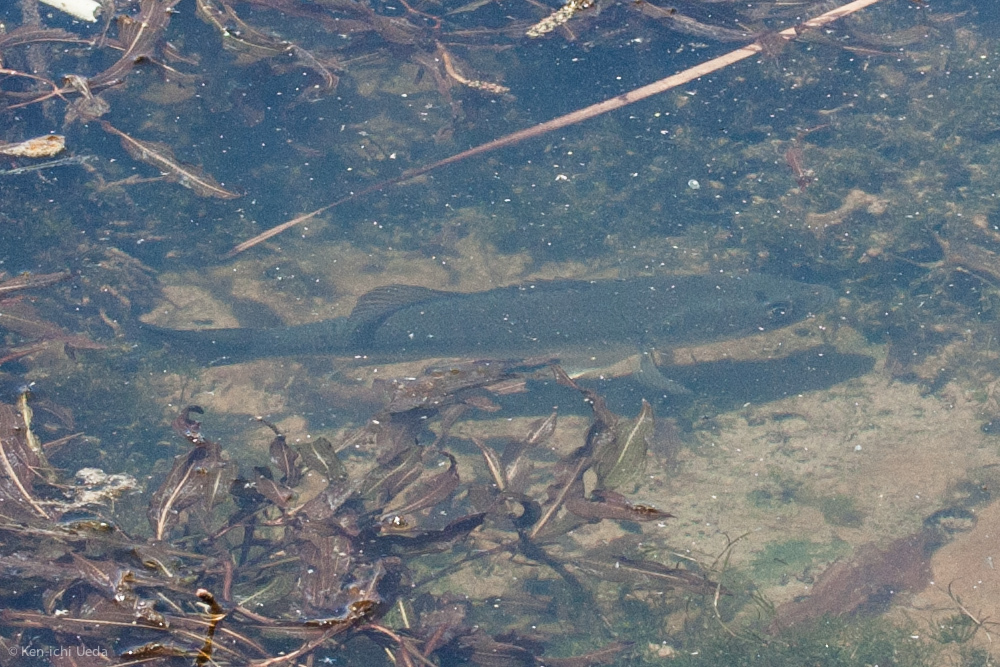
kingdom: Animalia
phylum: Chordata
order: Perciformes
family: Centrarchidae
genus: Micropterus
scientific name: Micropterus
